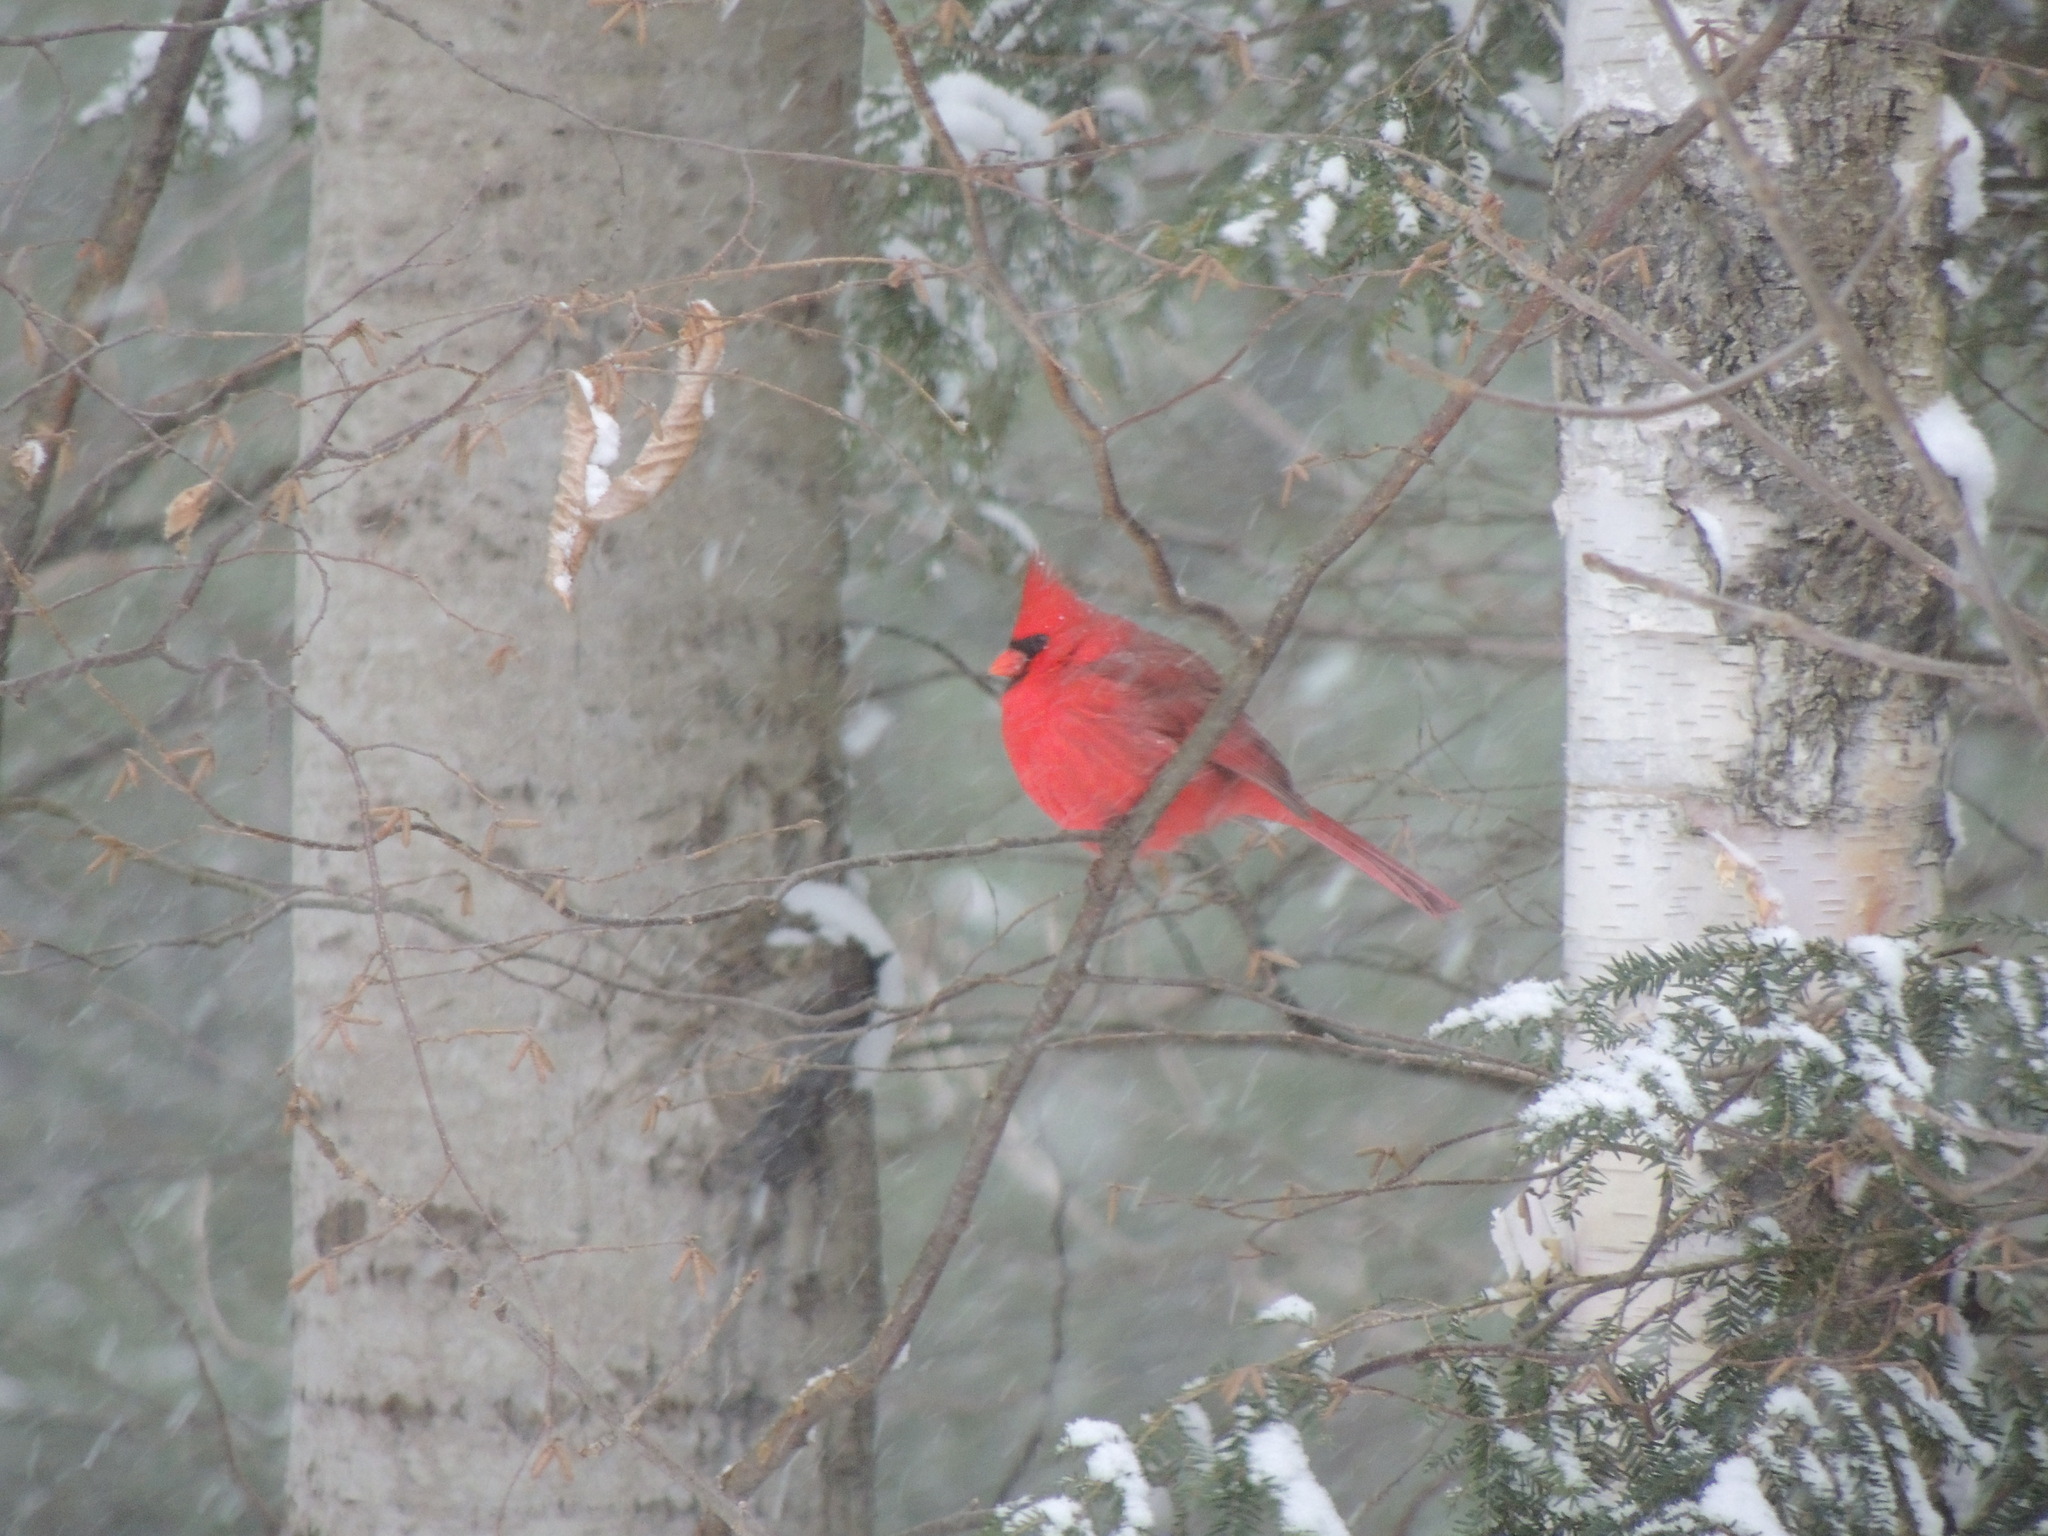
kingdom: Animalia
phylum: Chordata
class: Aves
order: Passeriformes
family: Cardinalidae
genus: Cardinalis
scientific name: Cardinalis cardinalis
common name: Northern cardinal
